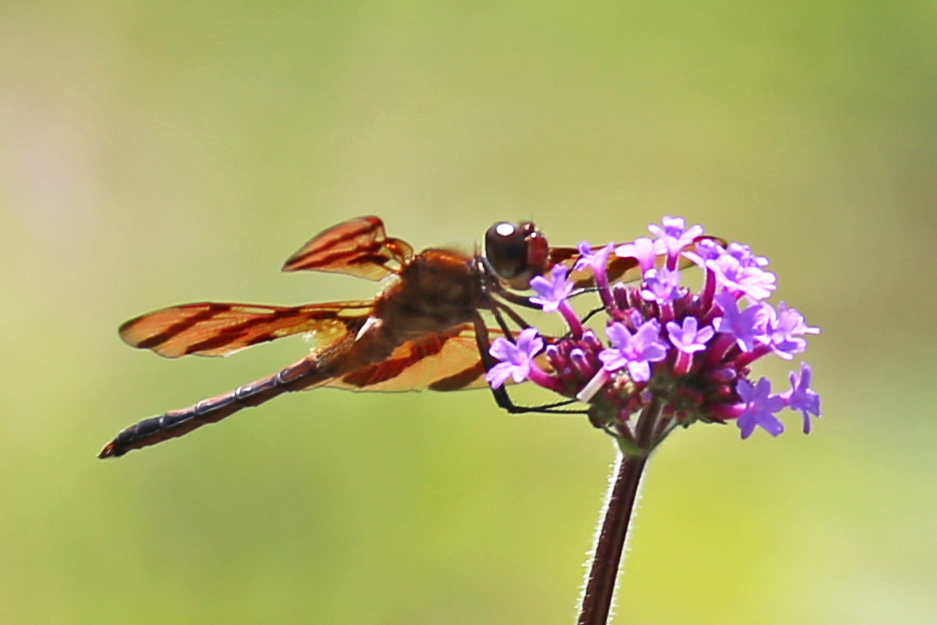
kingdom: Animalia
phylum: Arthropoda
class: Insecta
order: Odonata
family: Libellulidae
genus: Celithemis
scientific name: Celithemis eponina
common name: Halloween pennant
